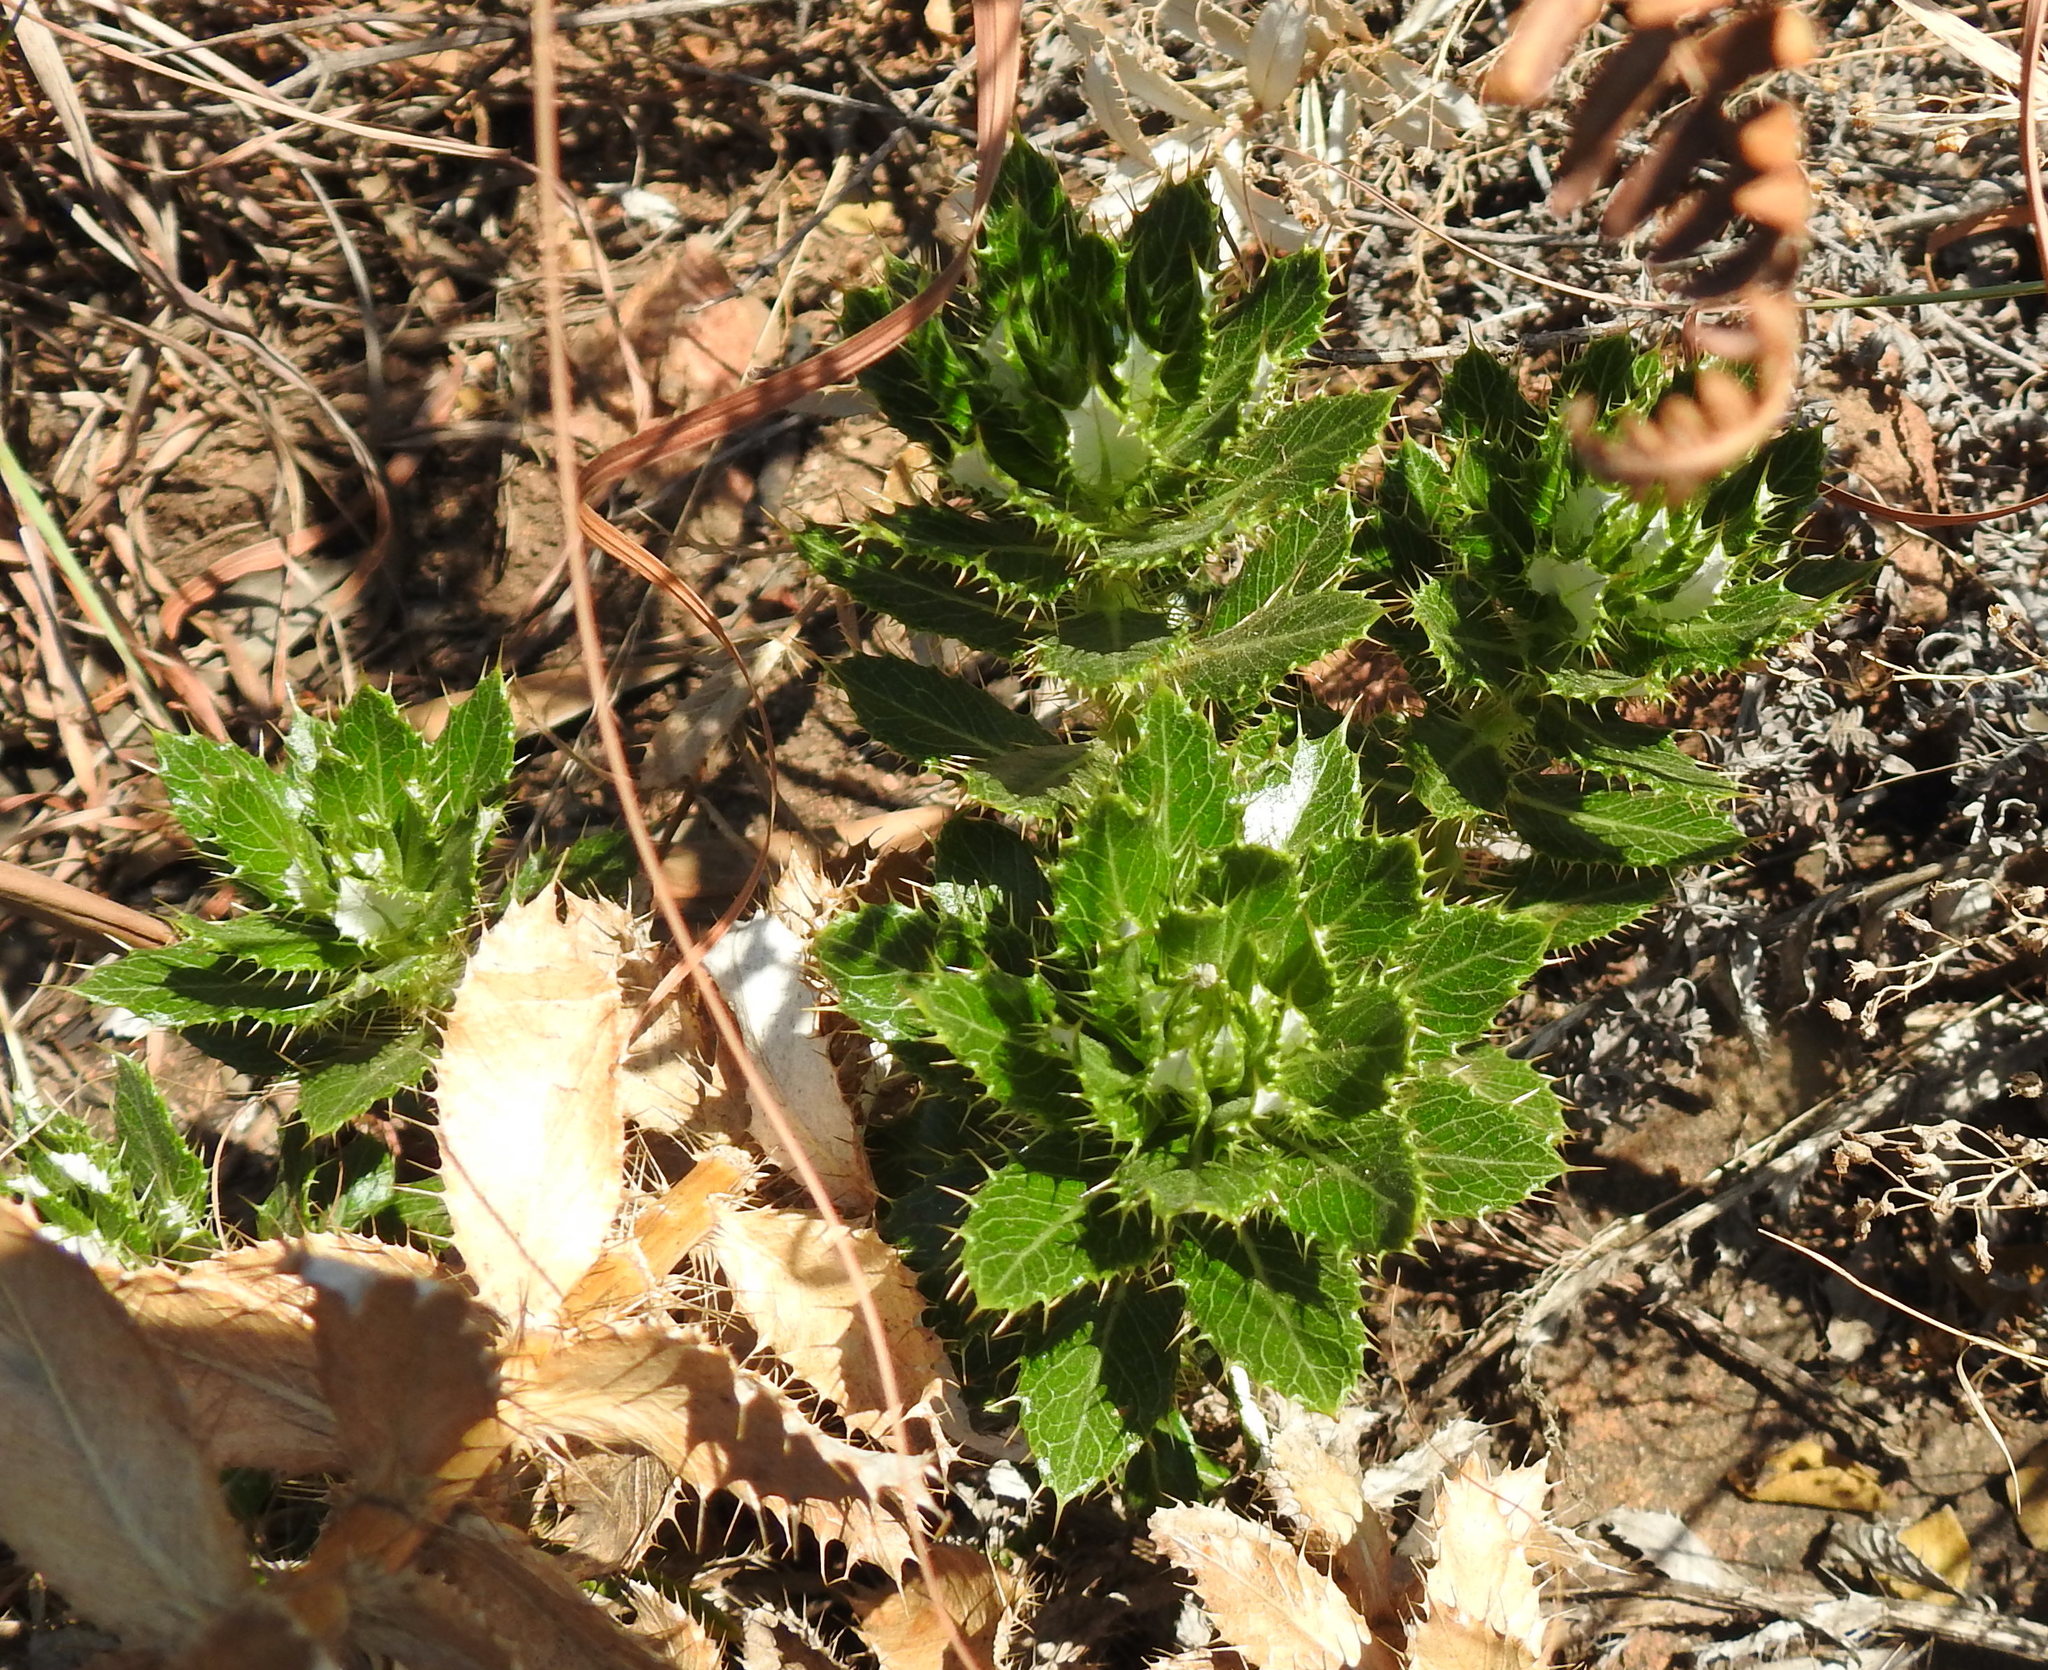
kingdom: Plantae
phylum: Tracheophyta
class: Magnoliopsida
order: Asterales
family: Asteraceae
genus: Berkheya
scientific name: Berkheya carlinopsis
